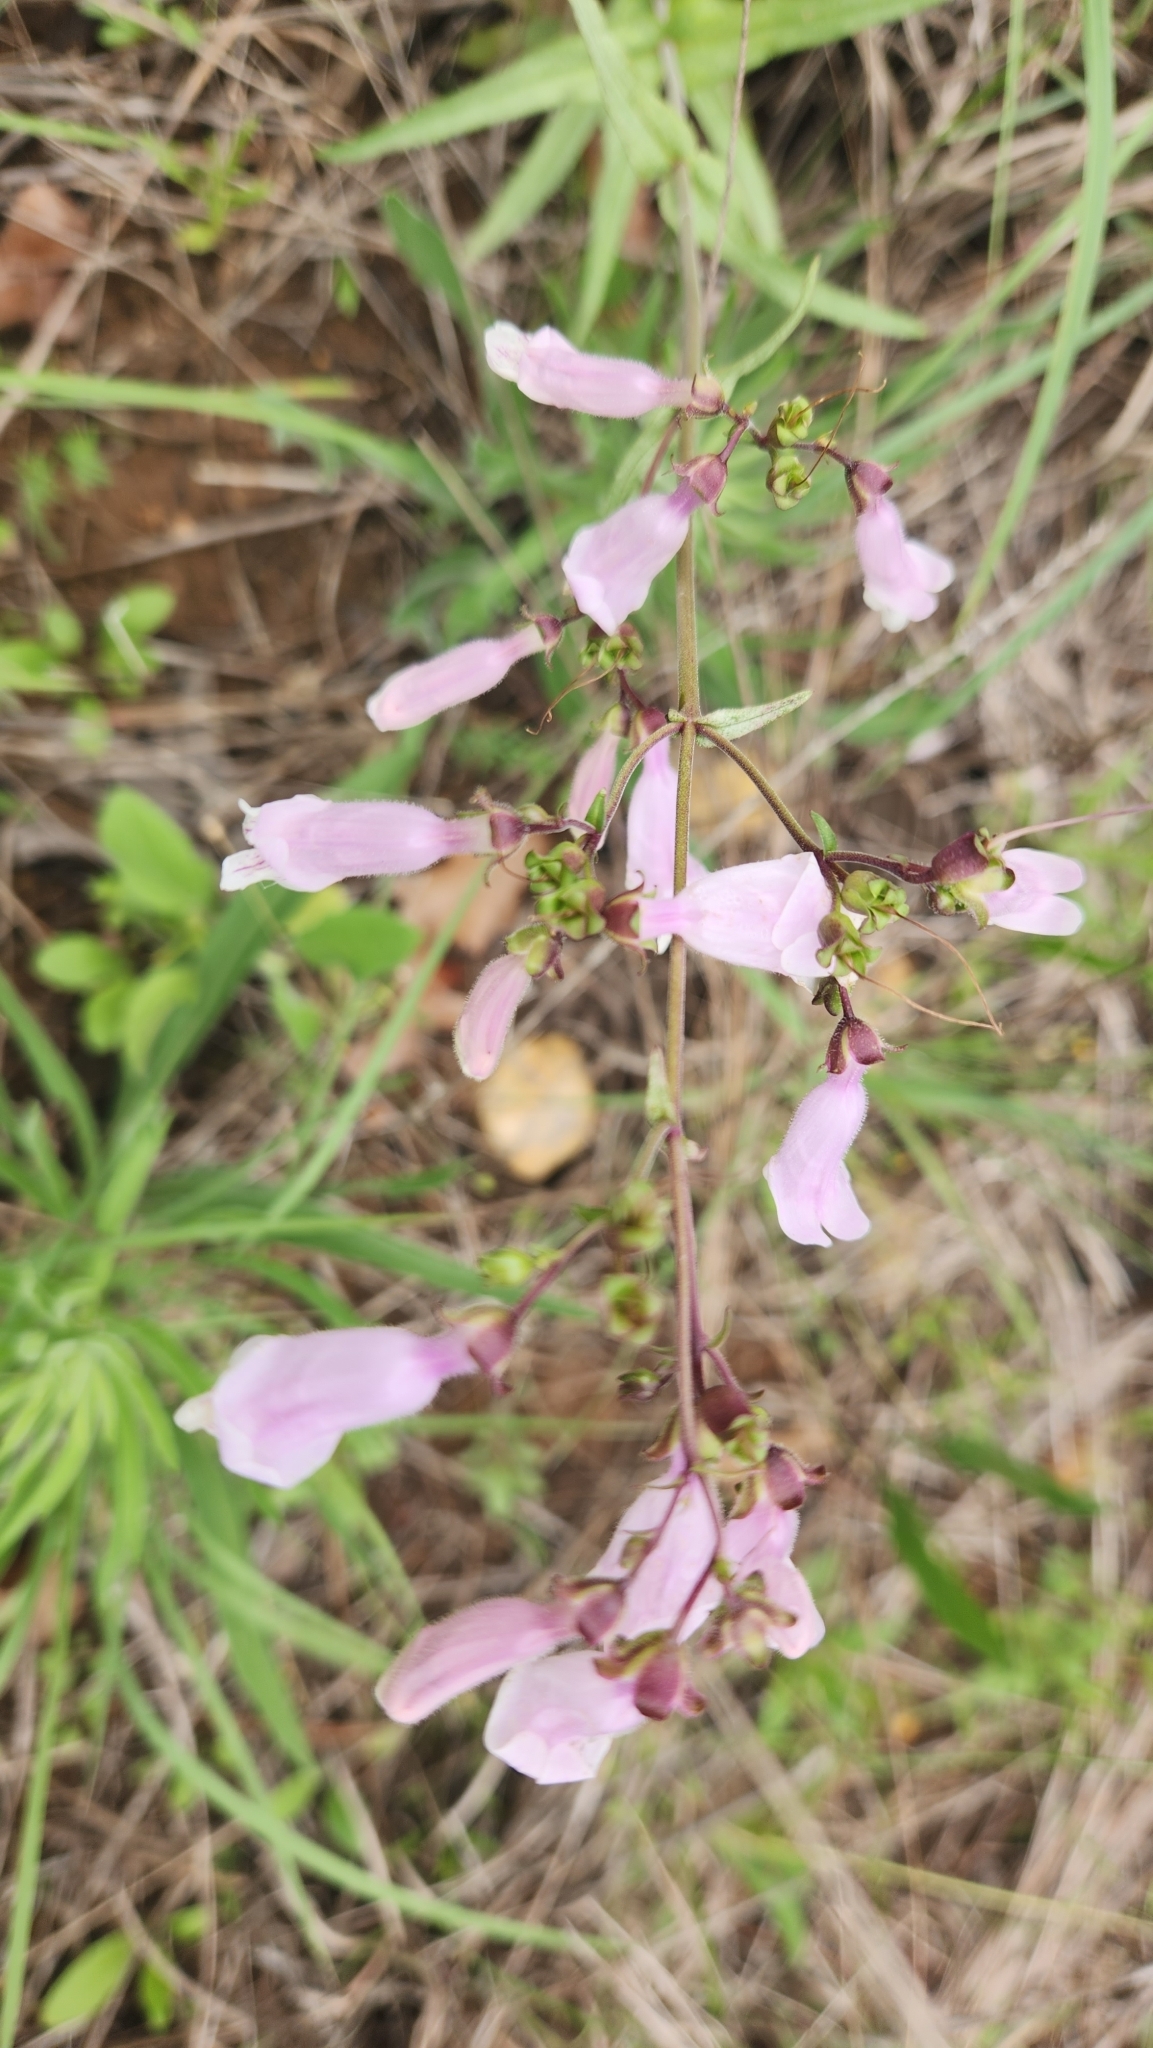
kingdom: Plantae
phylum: Tracheophyta
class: Magnoliopsida
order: Lamiales
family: Plantaginaceae
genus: Penstemon
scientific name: Penstemon laxiflorus
